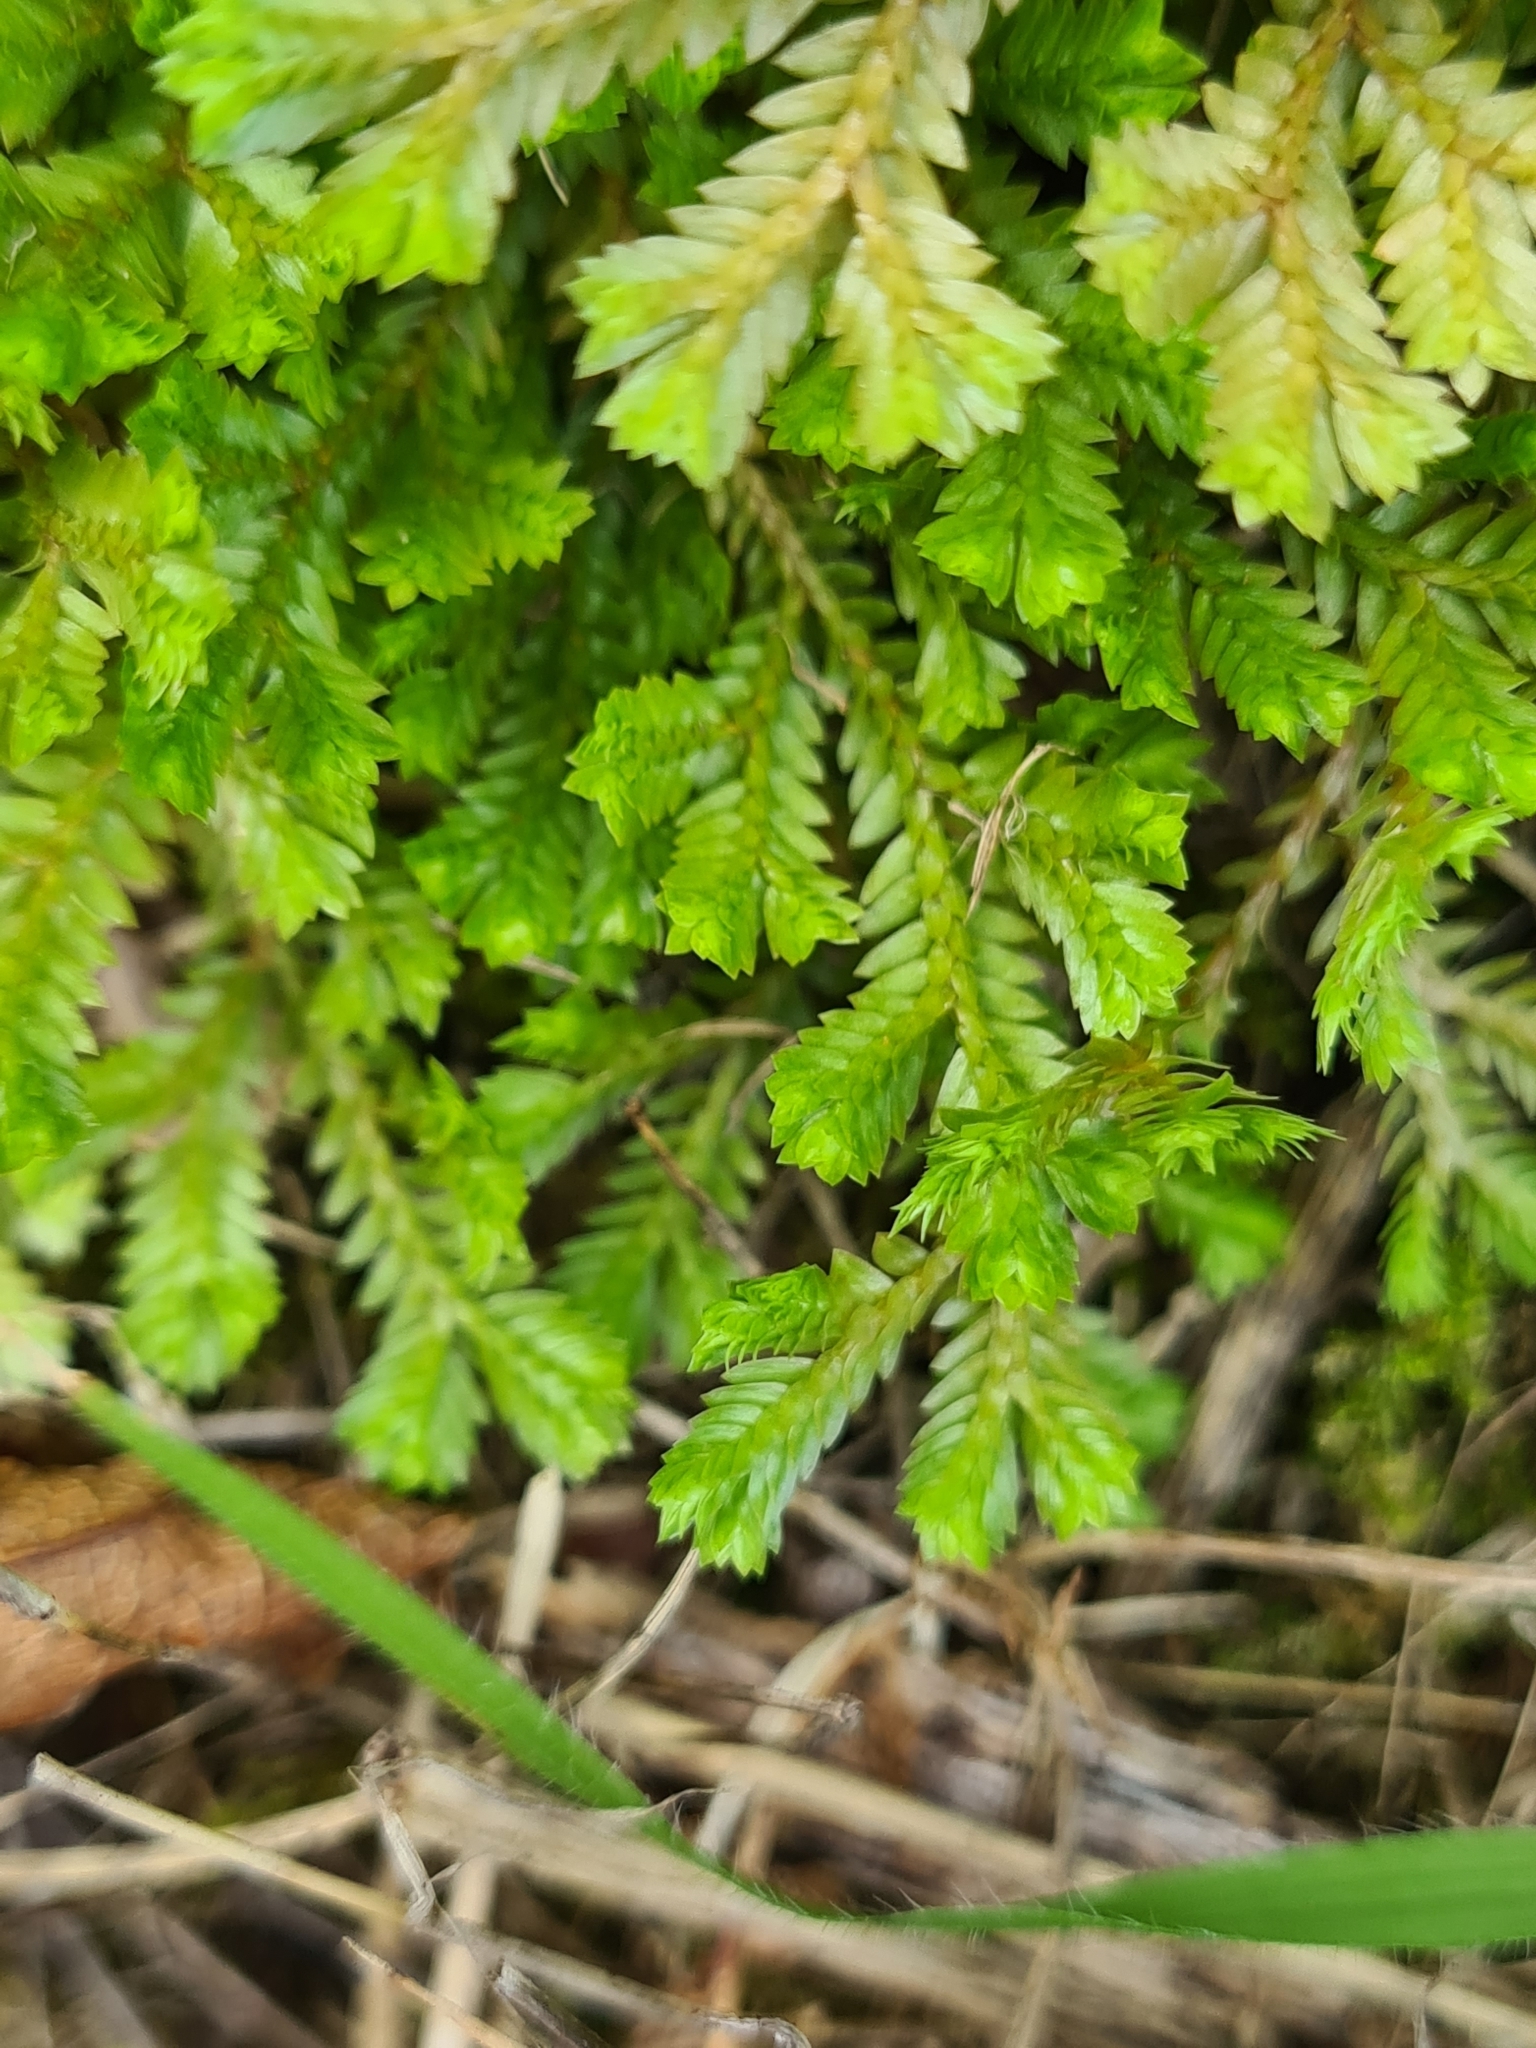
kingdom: Plantae
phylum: Tracheophyta
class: Lycopodiopsida
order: Selaginellales
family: Selaginellaceae
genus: Selaginella
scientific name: Selaginella kraussiana
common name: Krauss' spikemoss
